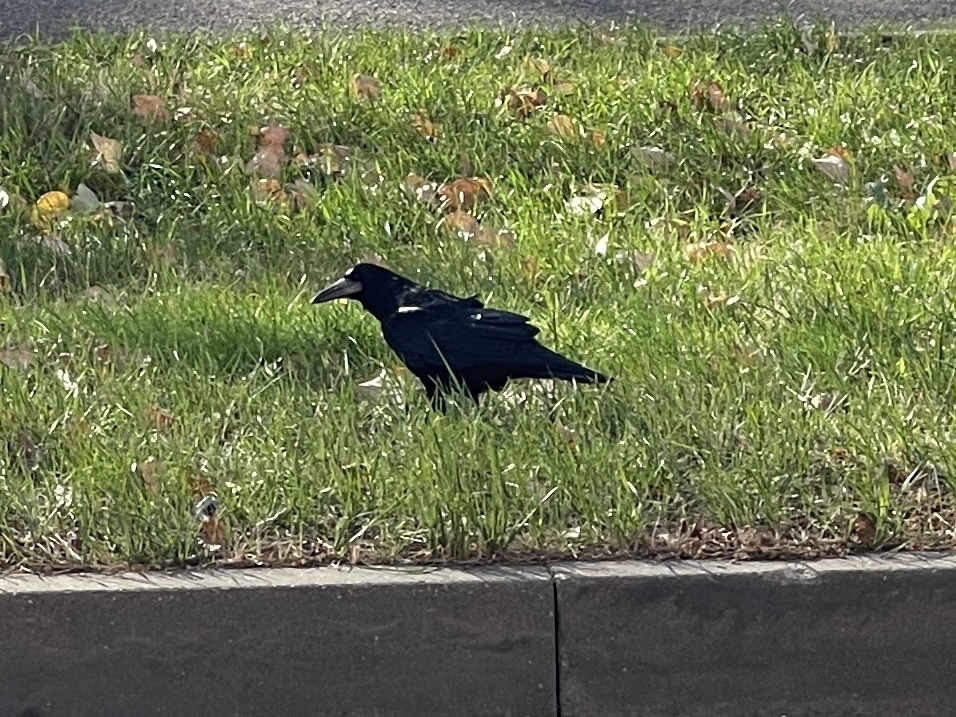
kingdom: Animalia
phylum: Chordata
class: Aves
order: Passeriformes
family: Corvidae
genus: Corvus
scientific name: Corvus frugilegus
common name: Rook
